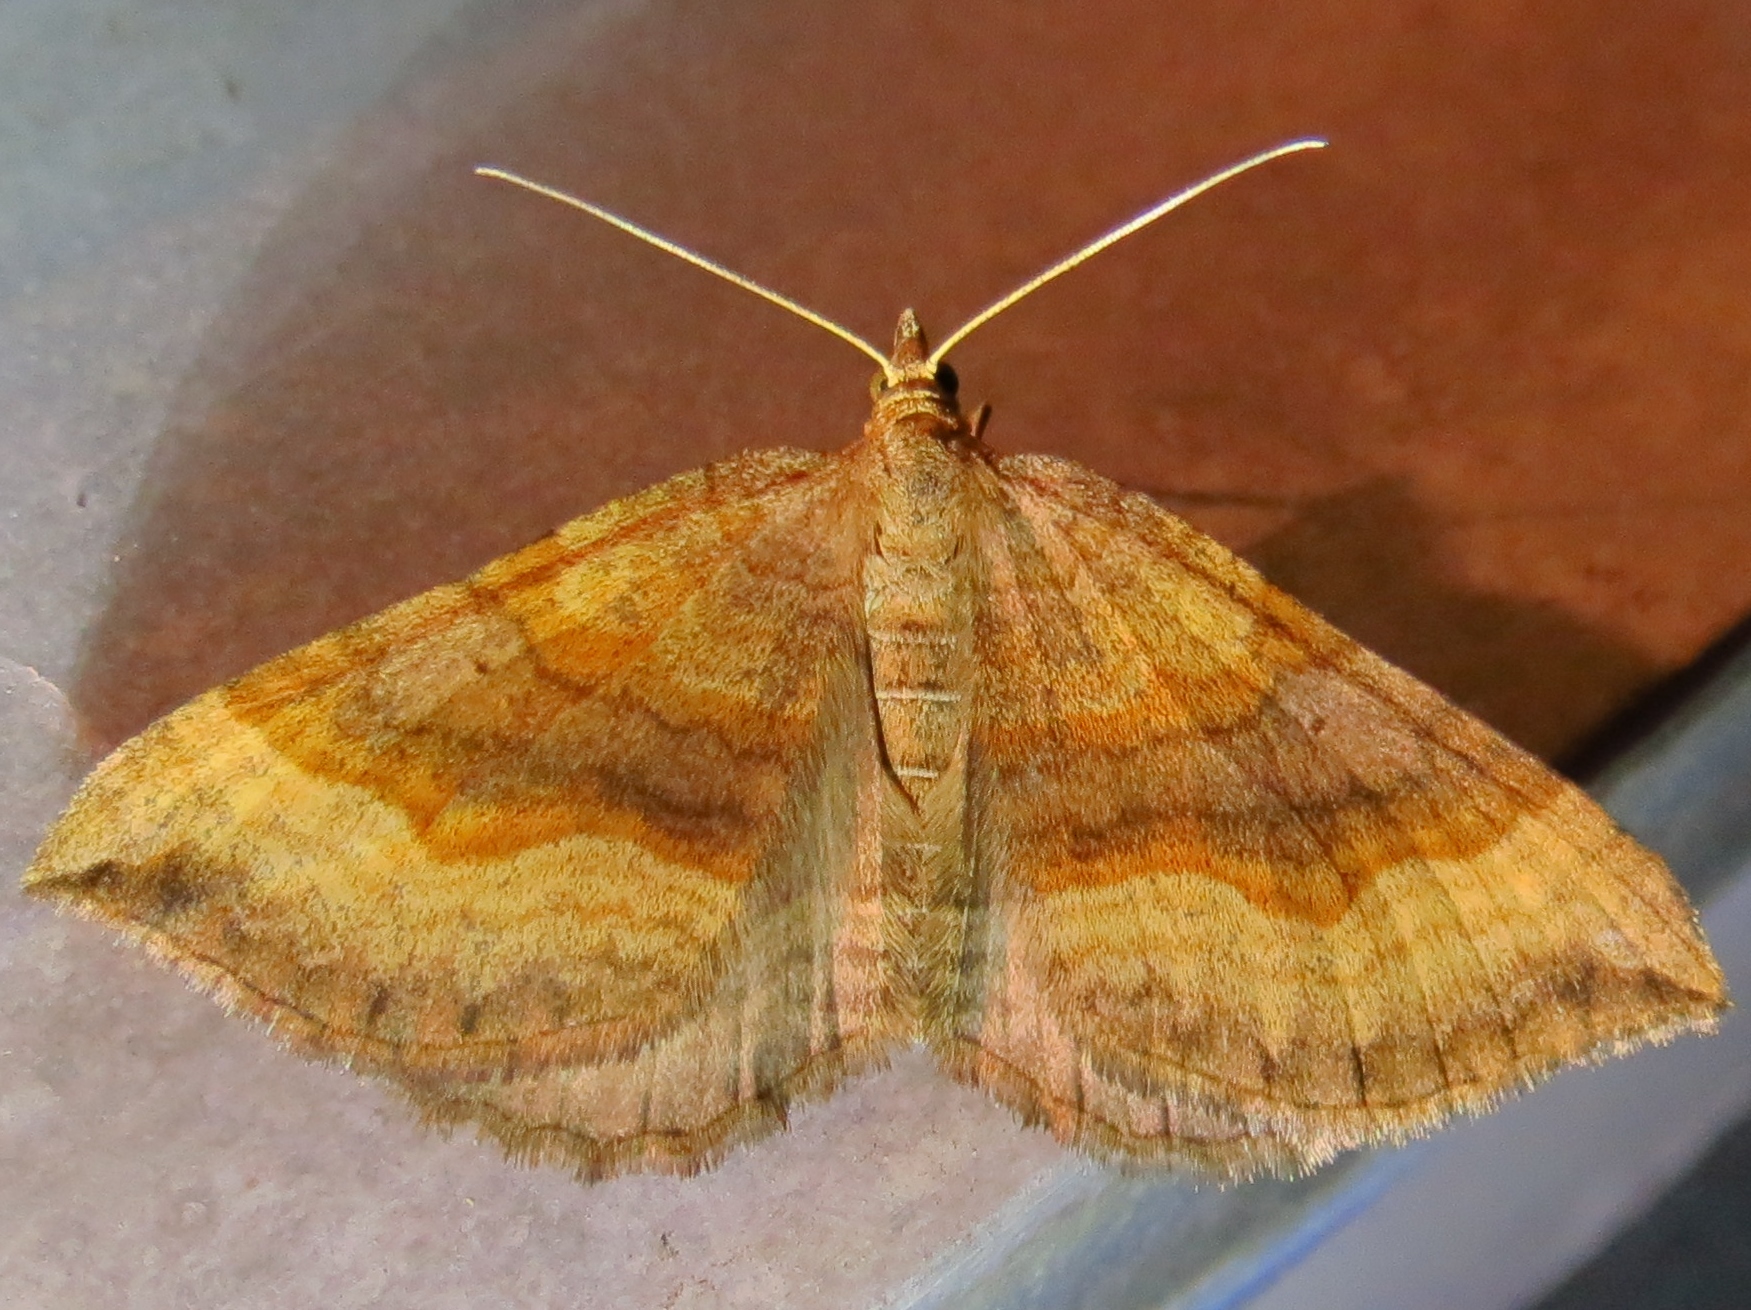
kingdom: Animalia
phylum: Arthropoda
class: Insecta
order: Lepidoptera
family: Geometridae
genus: Scotopteryx
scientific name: Scotopteryx chenopodiata
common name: Shaded broad-bar
